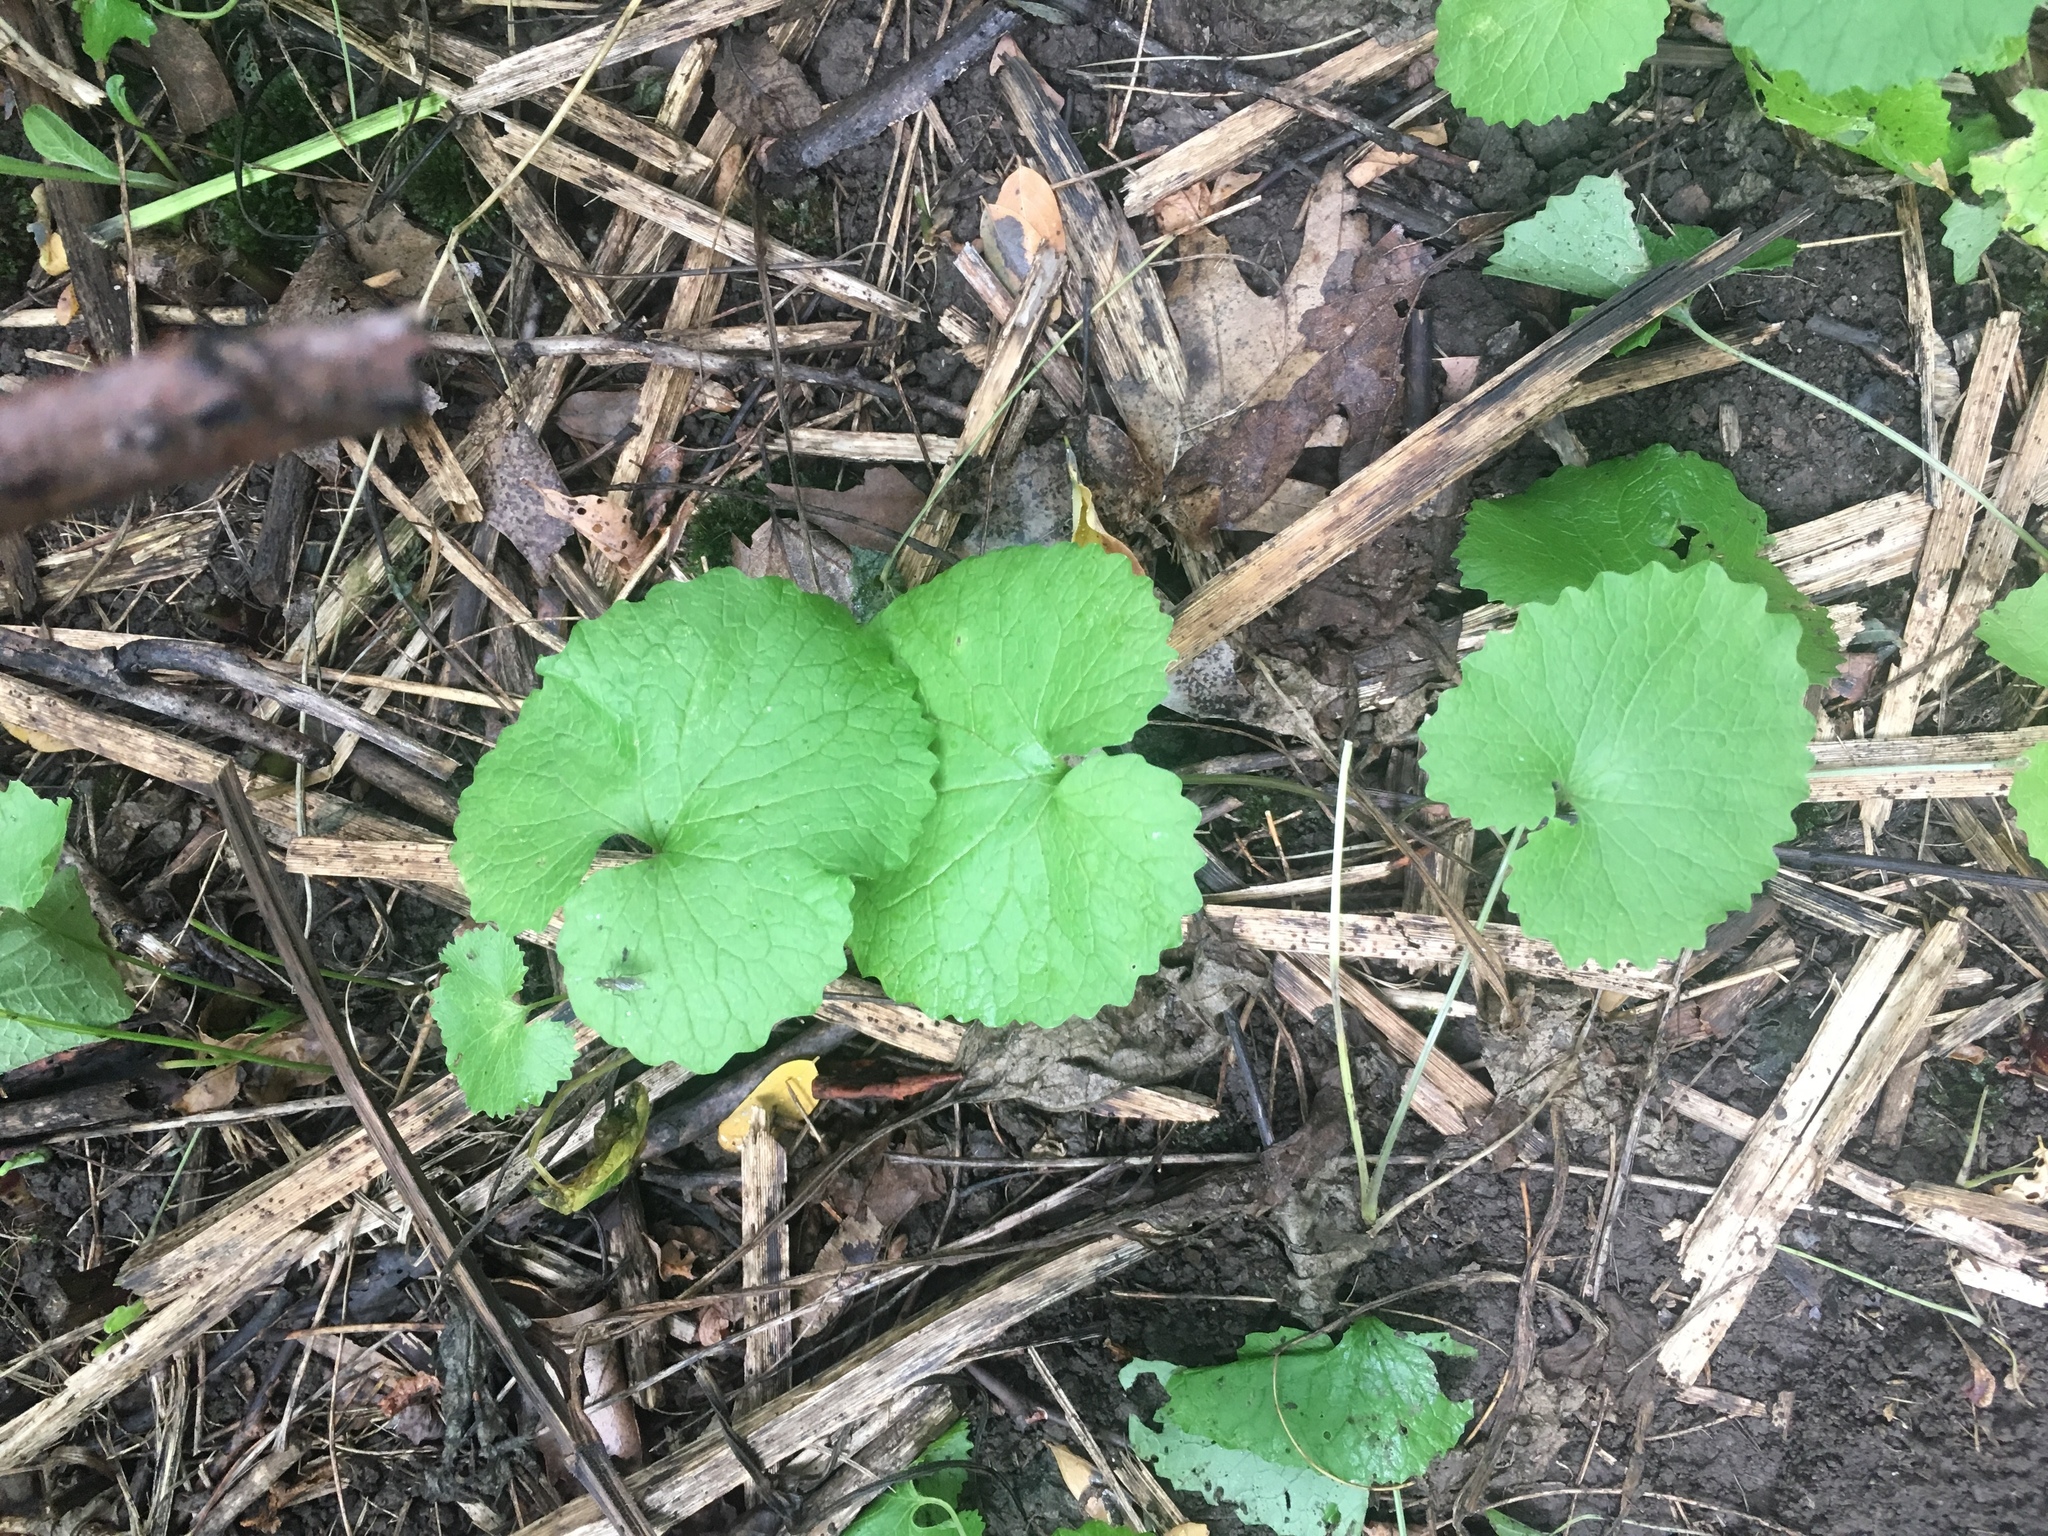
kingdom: Plantae
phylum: Tracheophyta
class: Magnoliopsida
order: Brassicales
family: Brassicaceae
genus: Alliaria
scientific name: Alliaria petiolata
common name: Garlic mustard
